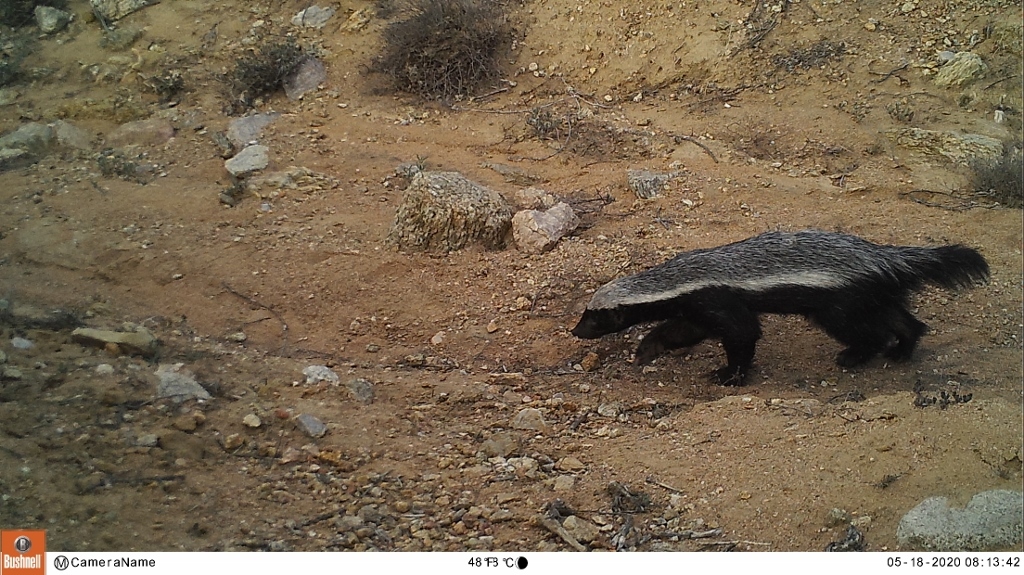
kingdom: Animalia
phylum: Chordata
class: Mammalia
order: Carnivora
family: Mustelidae
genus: Mellivora
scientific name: Mellivora capensis
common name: Honey badger
